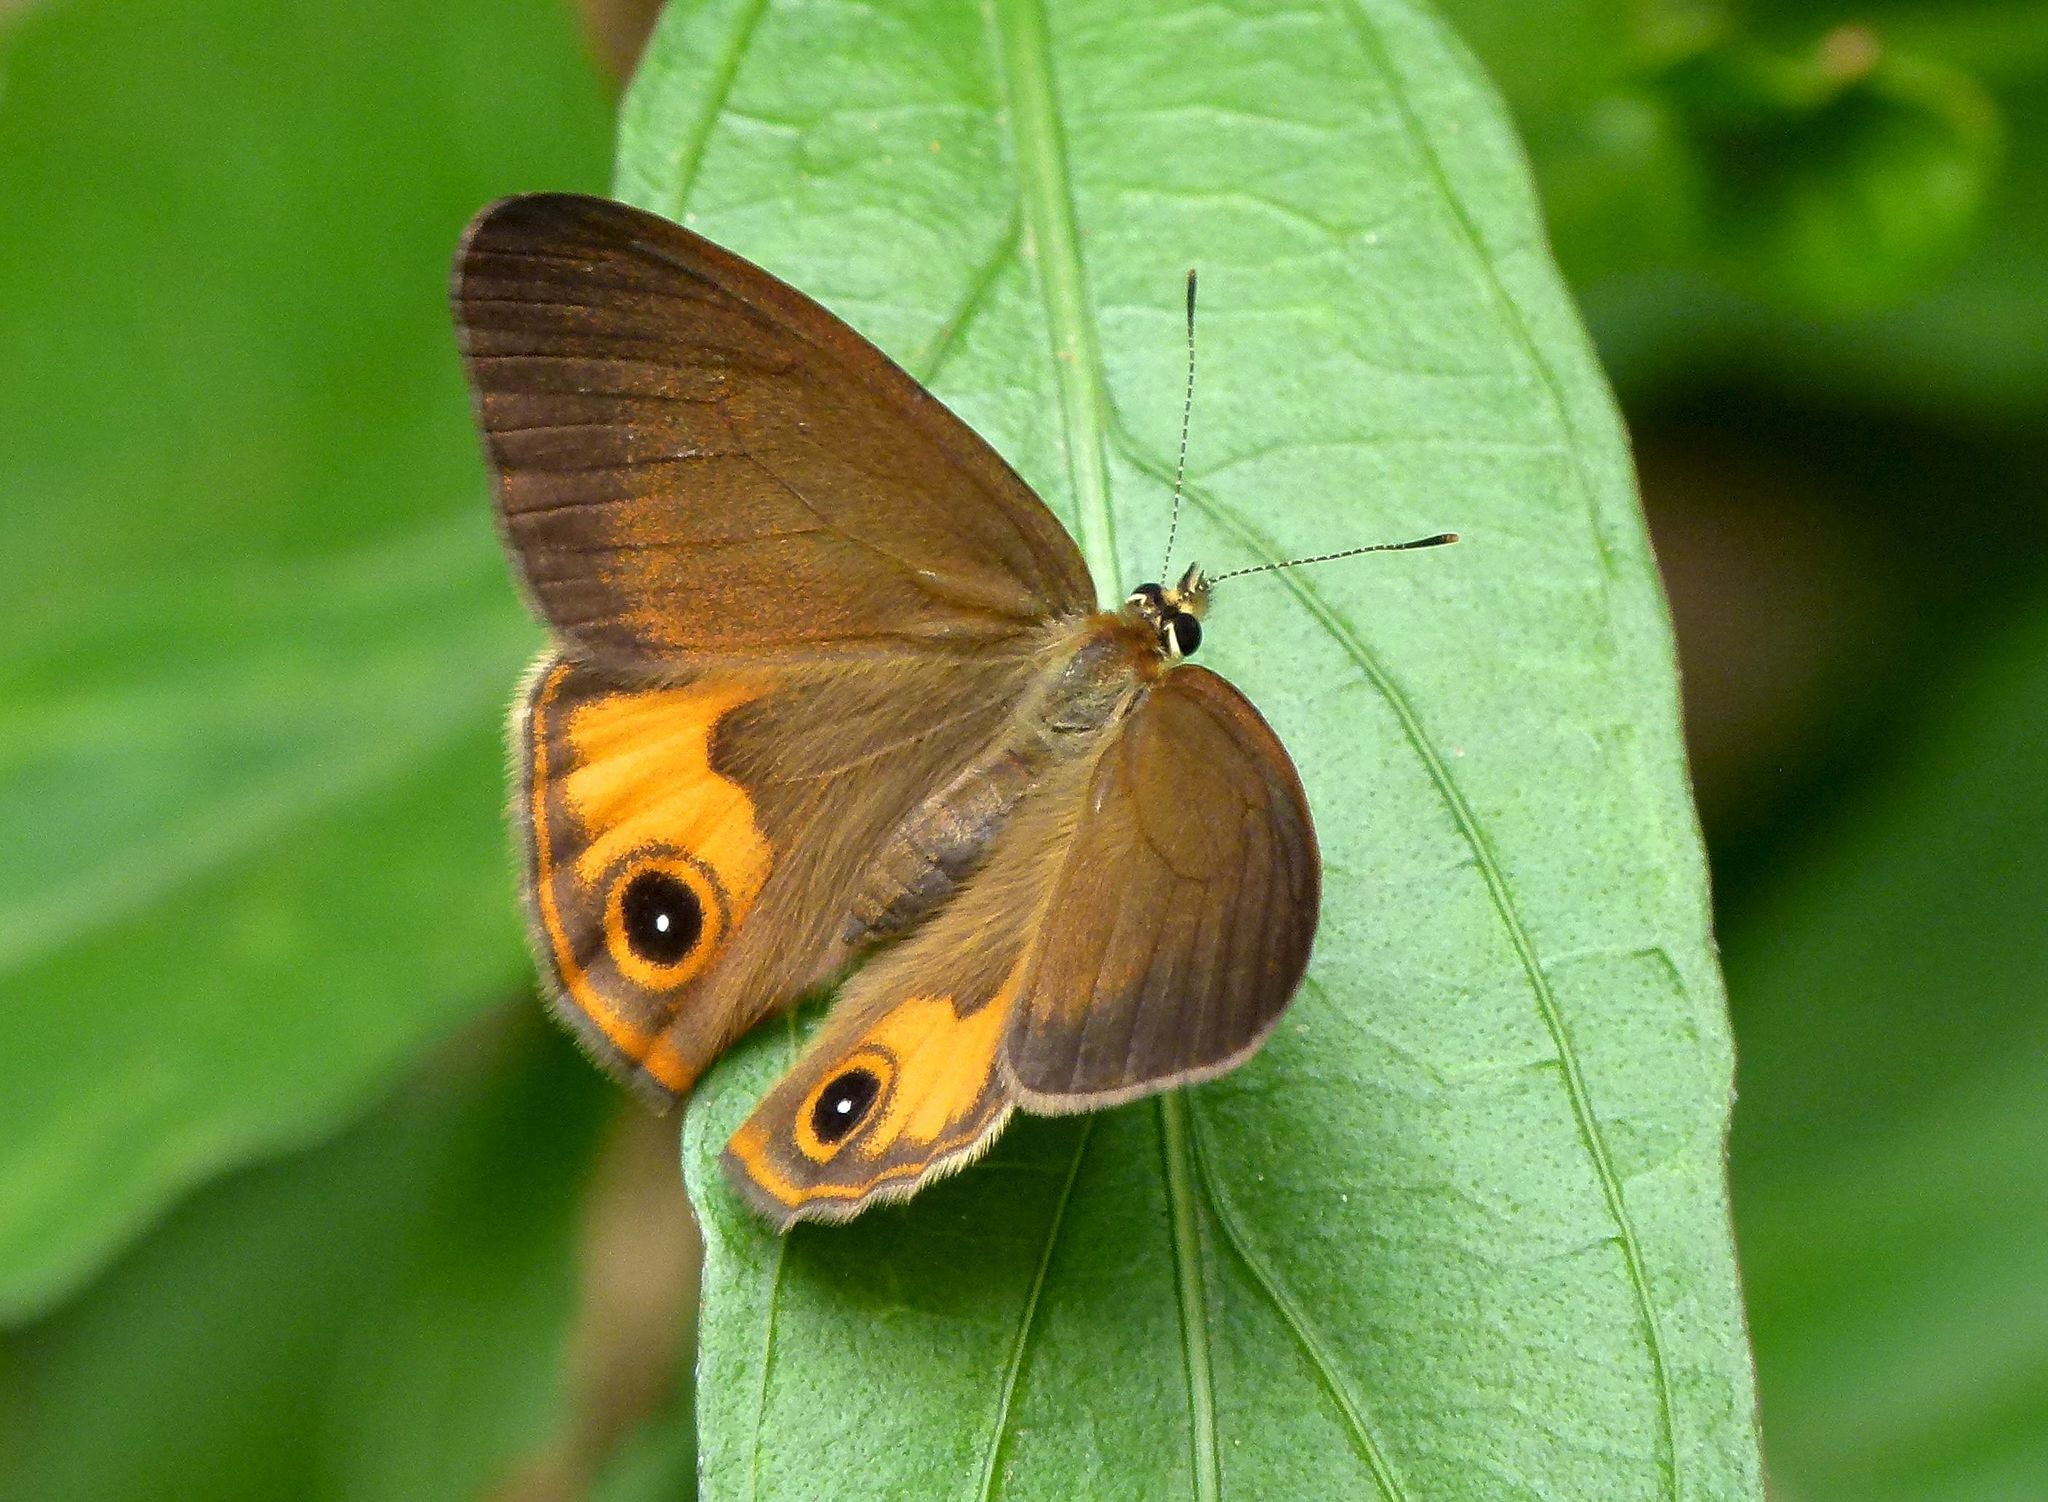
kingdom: Animalia
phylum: Arthropoda
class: Insecta
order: Lepidoptera
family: Nymphalidae
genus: Hypocysta
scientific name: Hypocysta metirius
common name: Brown ringlet
